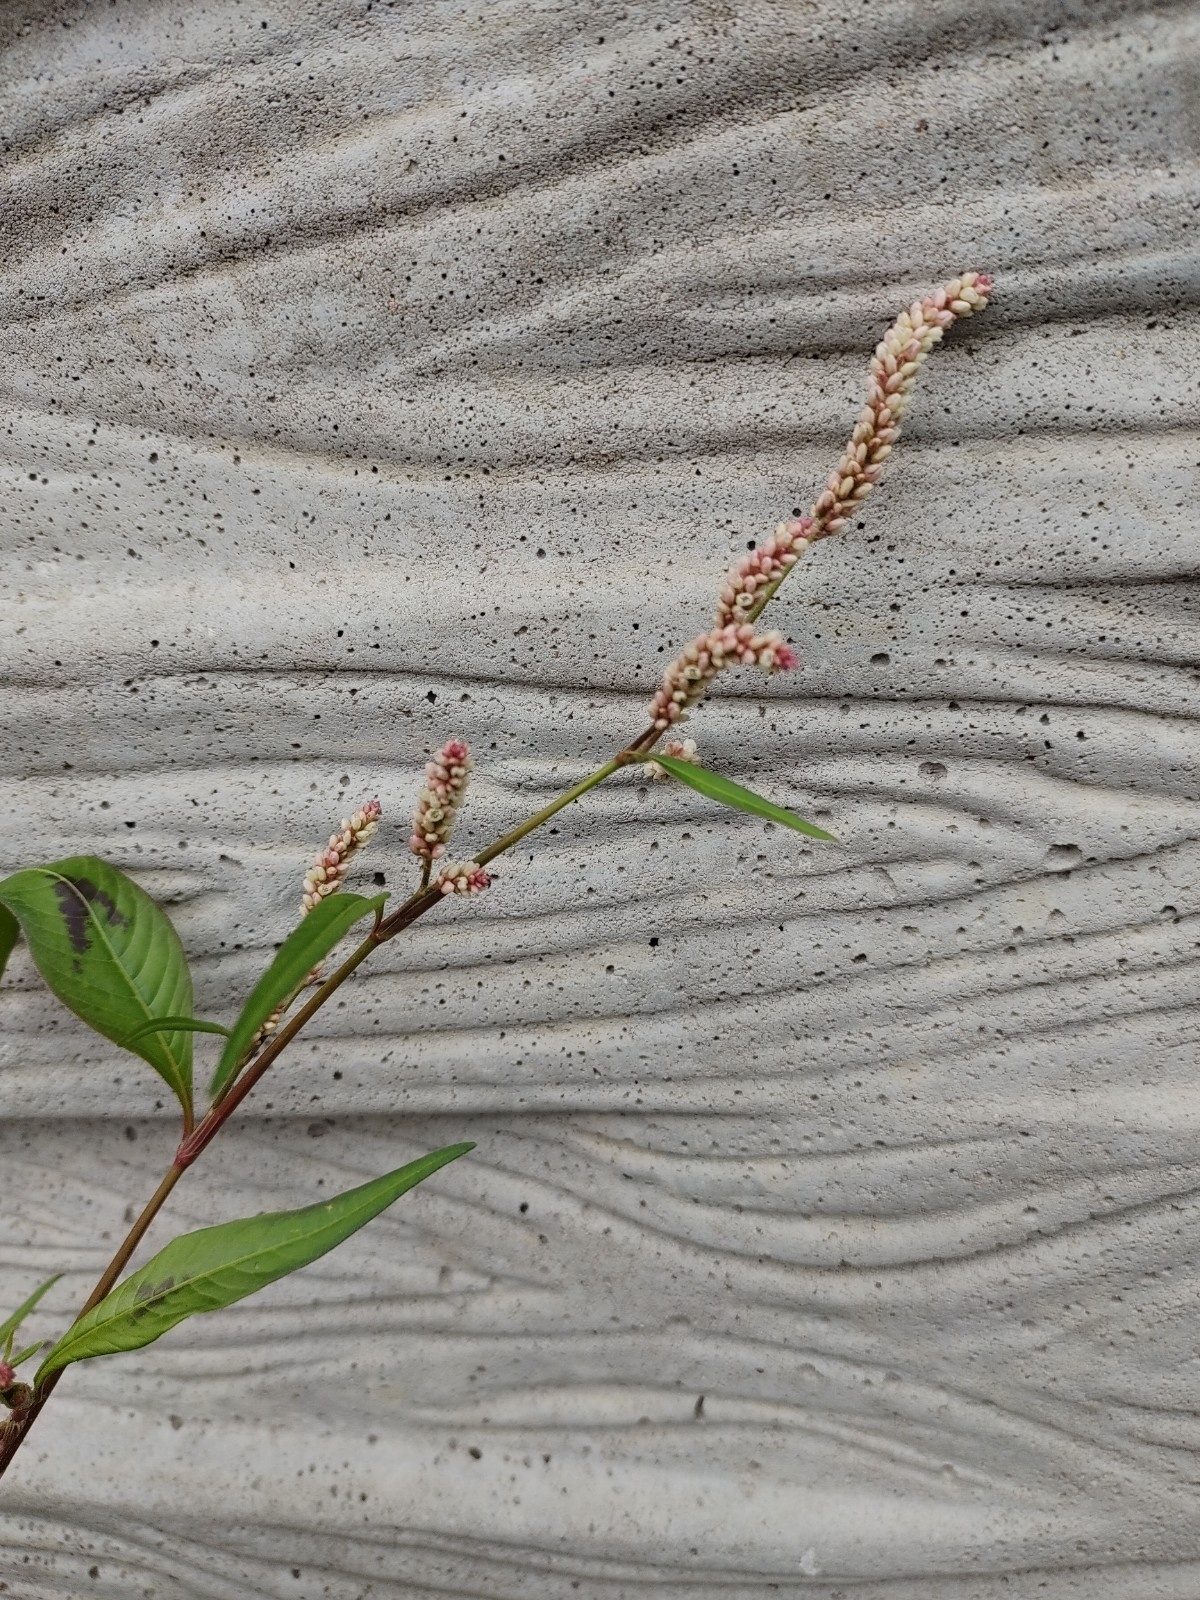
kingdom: Plantae
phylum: Tracheophyta
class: Magnoliopsida
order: Caryophyllales
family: Polygonaceae
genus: Persicaria
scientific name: Persicaria lapathifolia
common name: Curlytop knotweed
